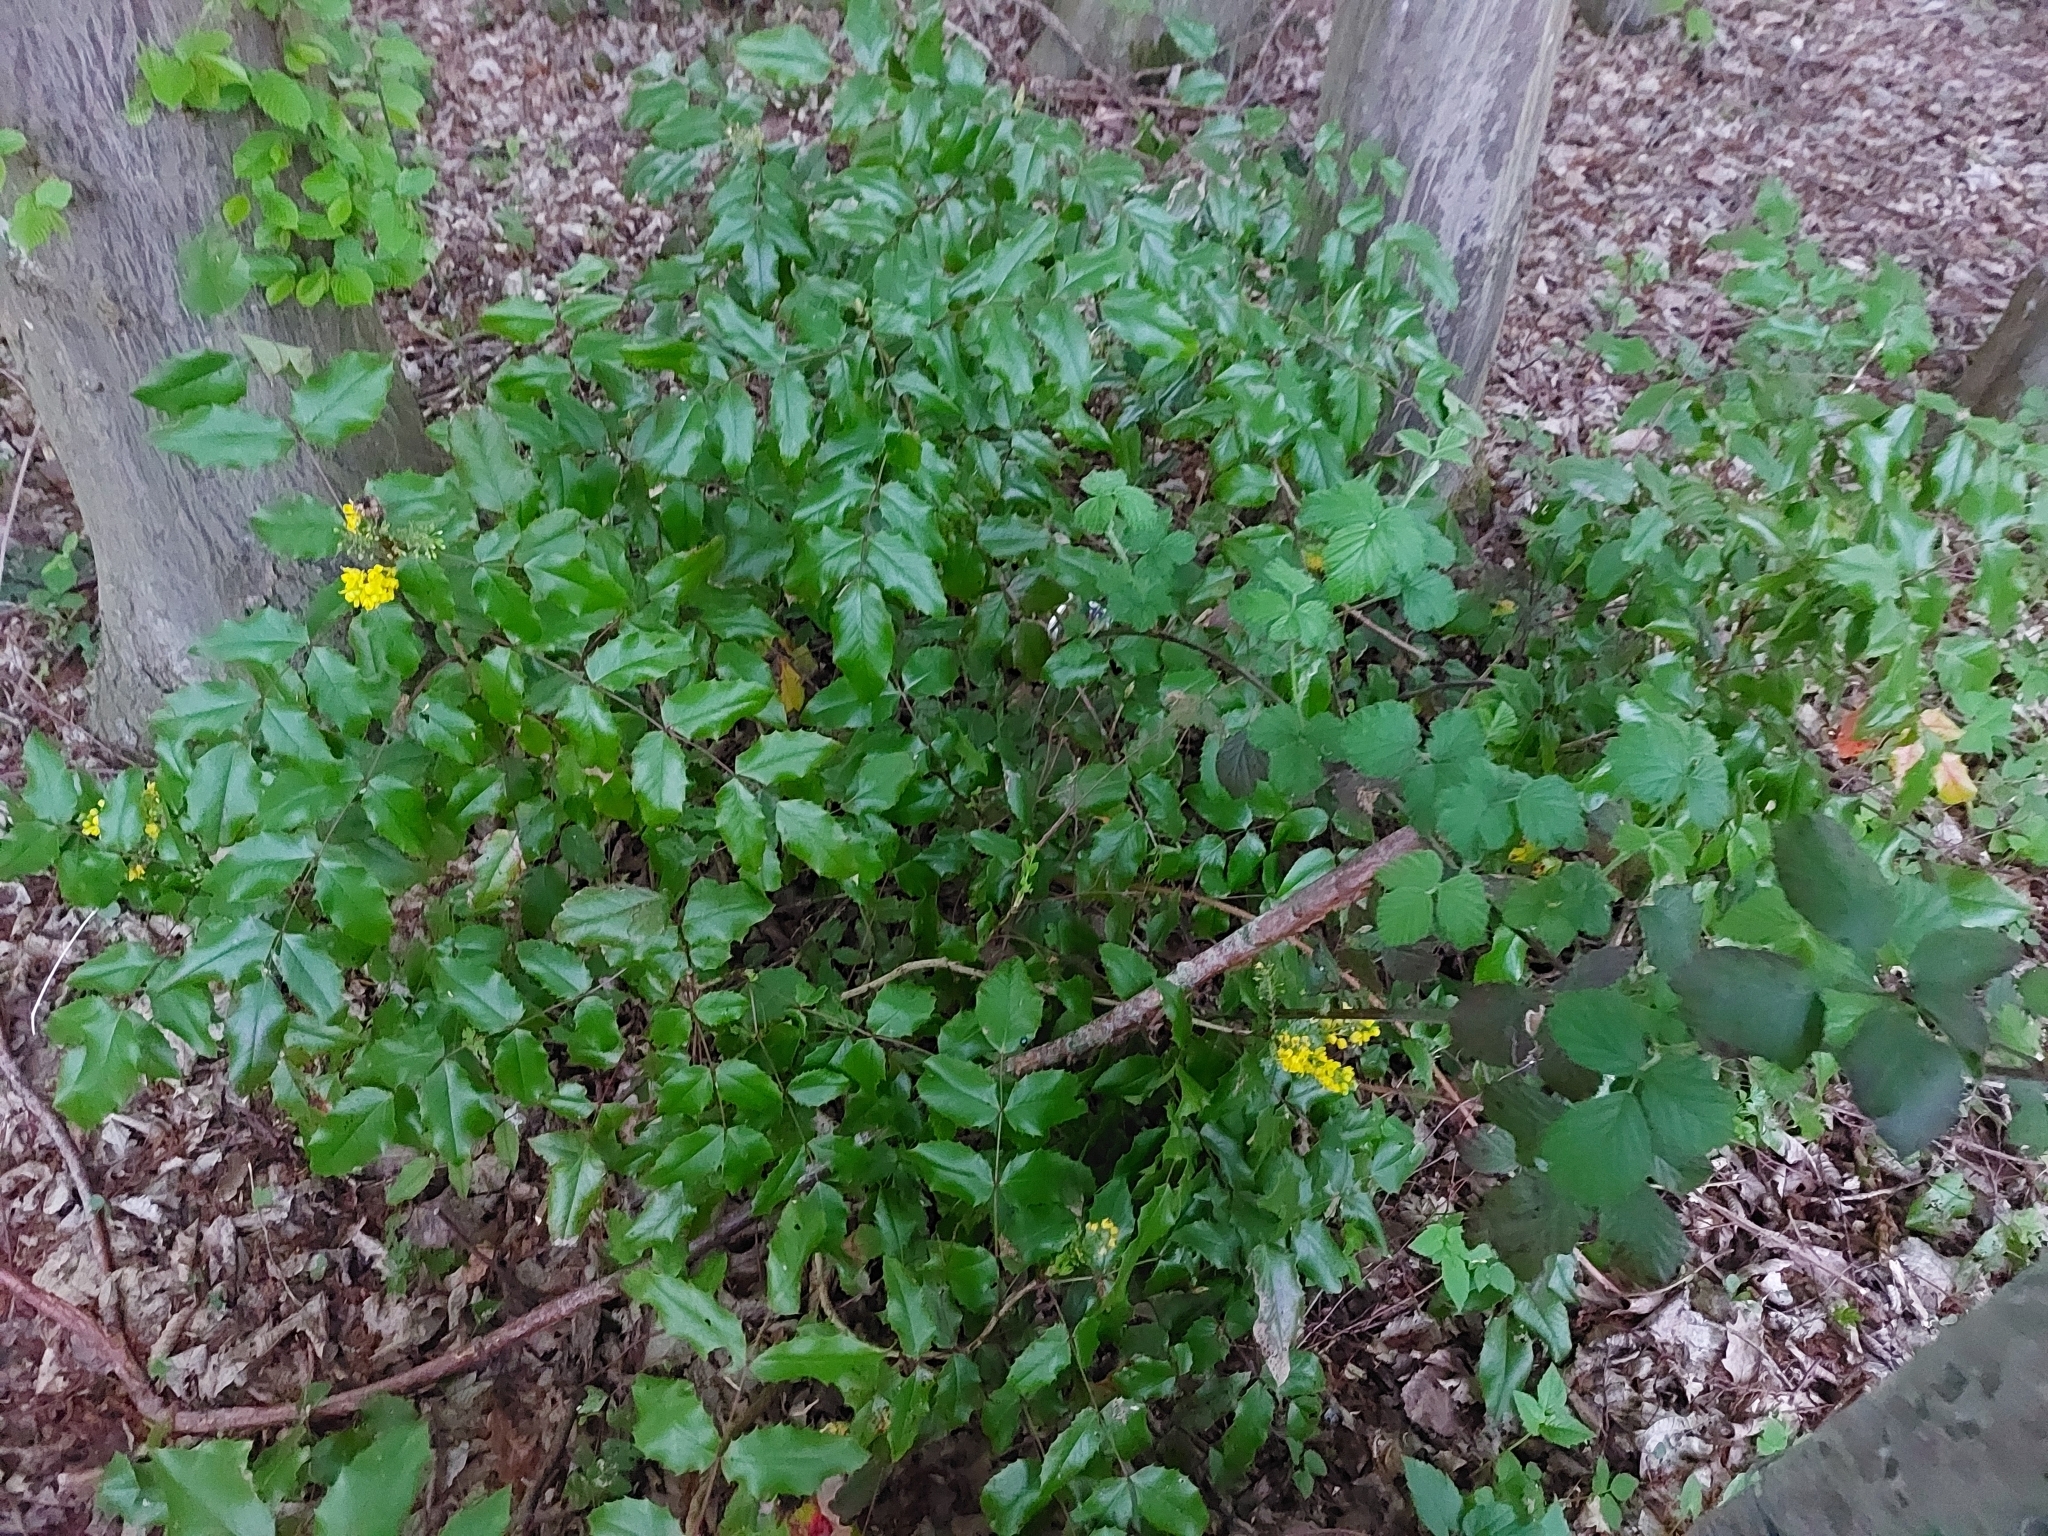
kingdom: Plantae
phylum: Tracheophyta
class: Magnoliopsida
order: Ranunculales
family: Berberidaceae
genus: Mahonia
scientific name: Mahonia aquifolium
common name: Oregon-grape
